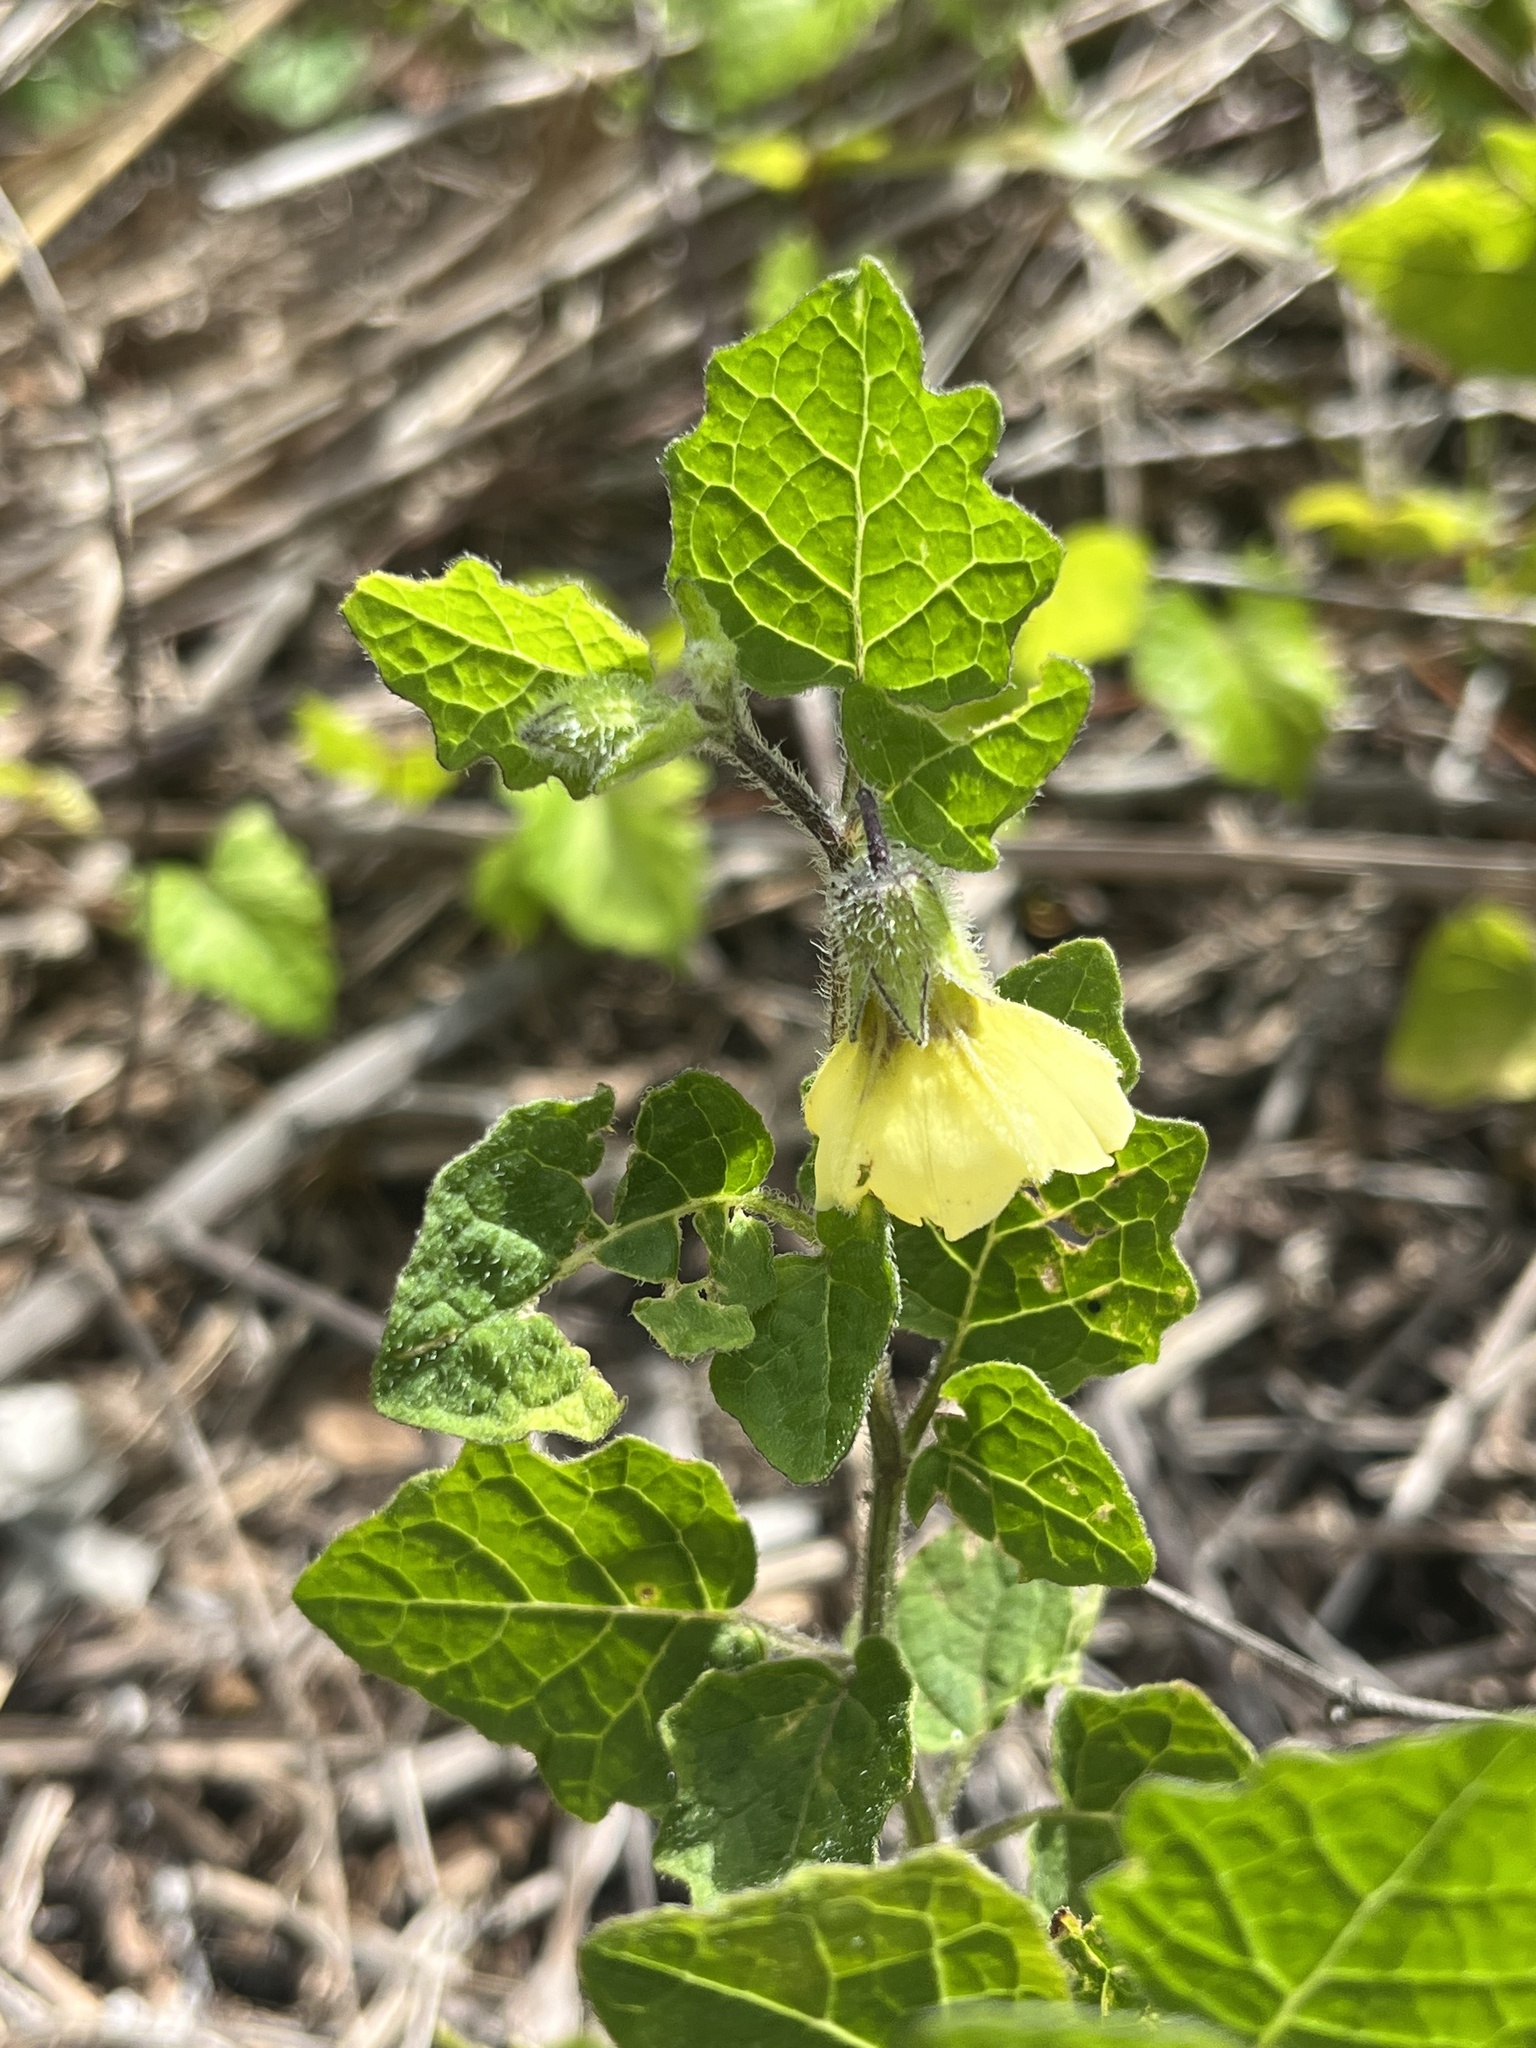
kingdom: Plantae
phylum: Tracheophyta
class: Magnoliopsida
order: Solanales
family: Solanaceae
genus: Physalis
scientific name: Physalis arenicola
